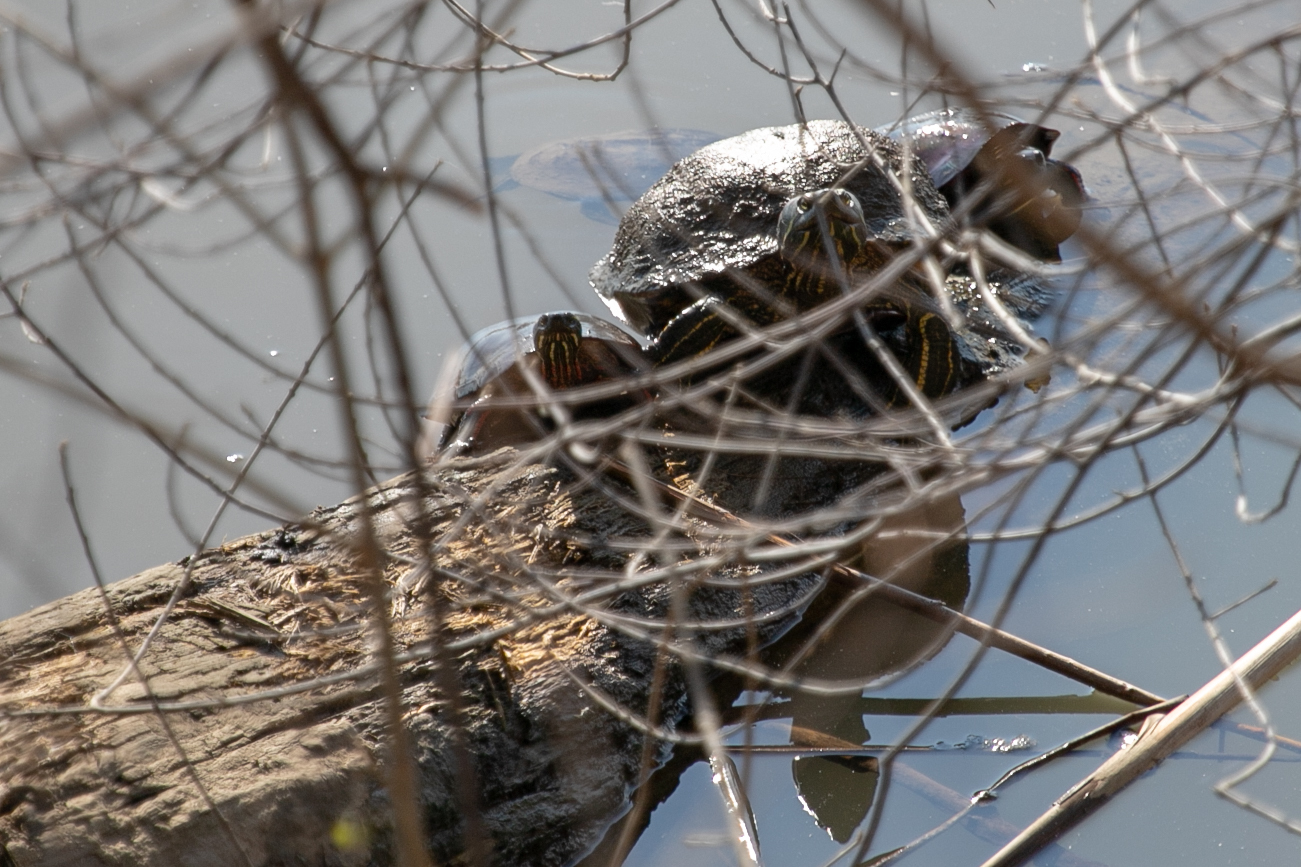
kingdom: Animalia
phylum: Chordata
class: Testudines
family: Emydidae
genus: Chrysemys
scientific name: Chrysemys picta
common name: Painted turtle
